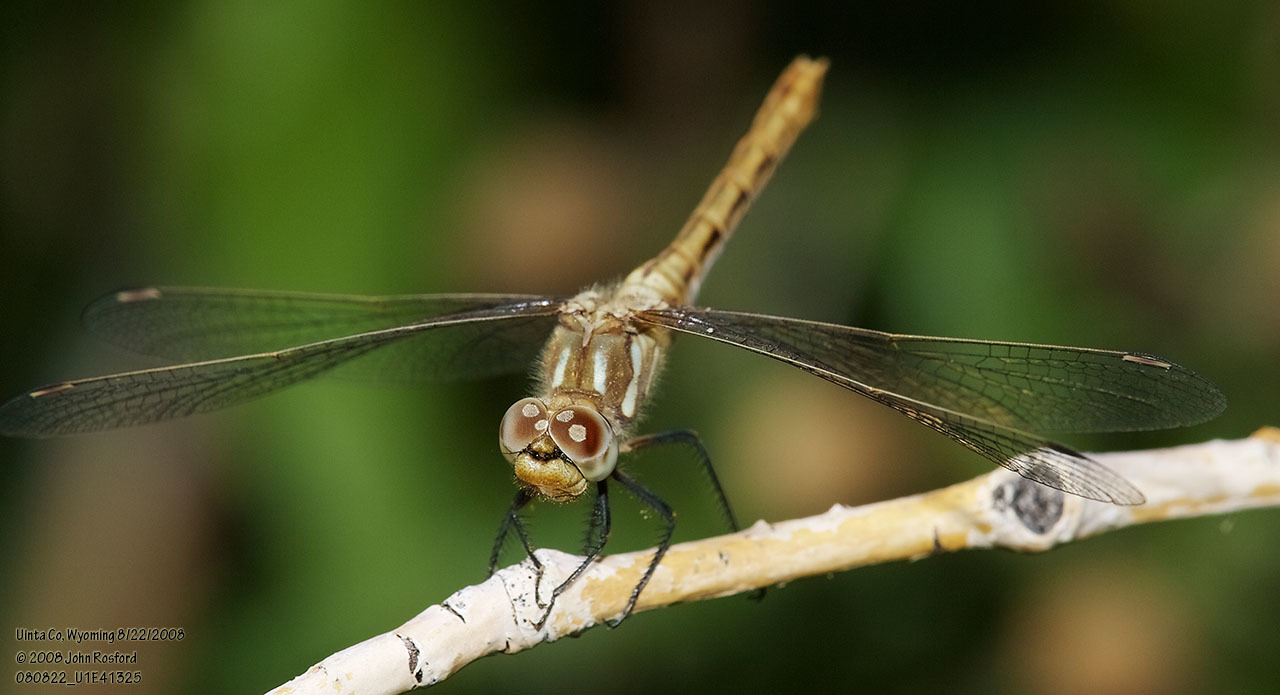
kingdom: Animalia
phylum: Arthropoda
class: Insecta
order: Odonata
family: Libellulidae
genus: Sympetrum
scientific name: Sympetrum pallipes
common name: Striped meadowhawk
